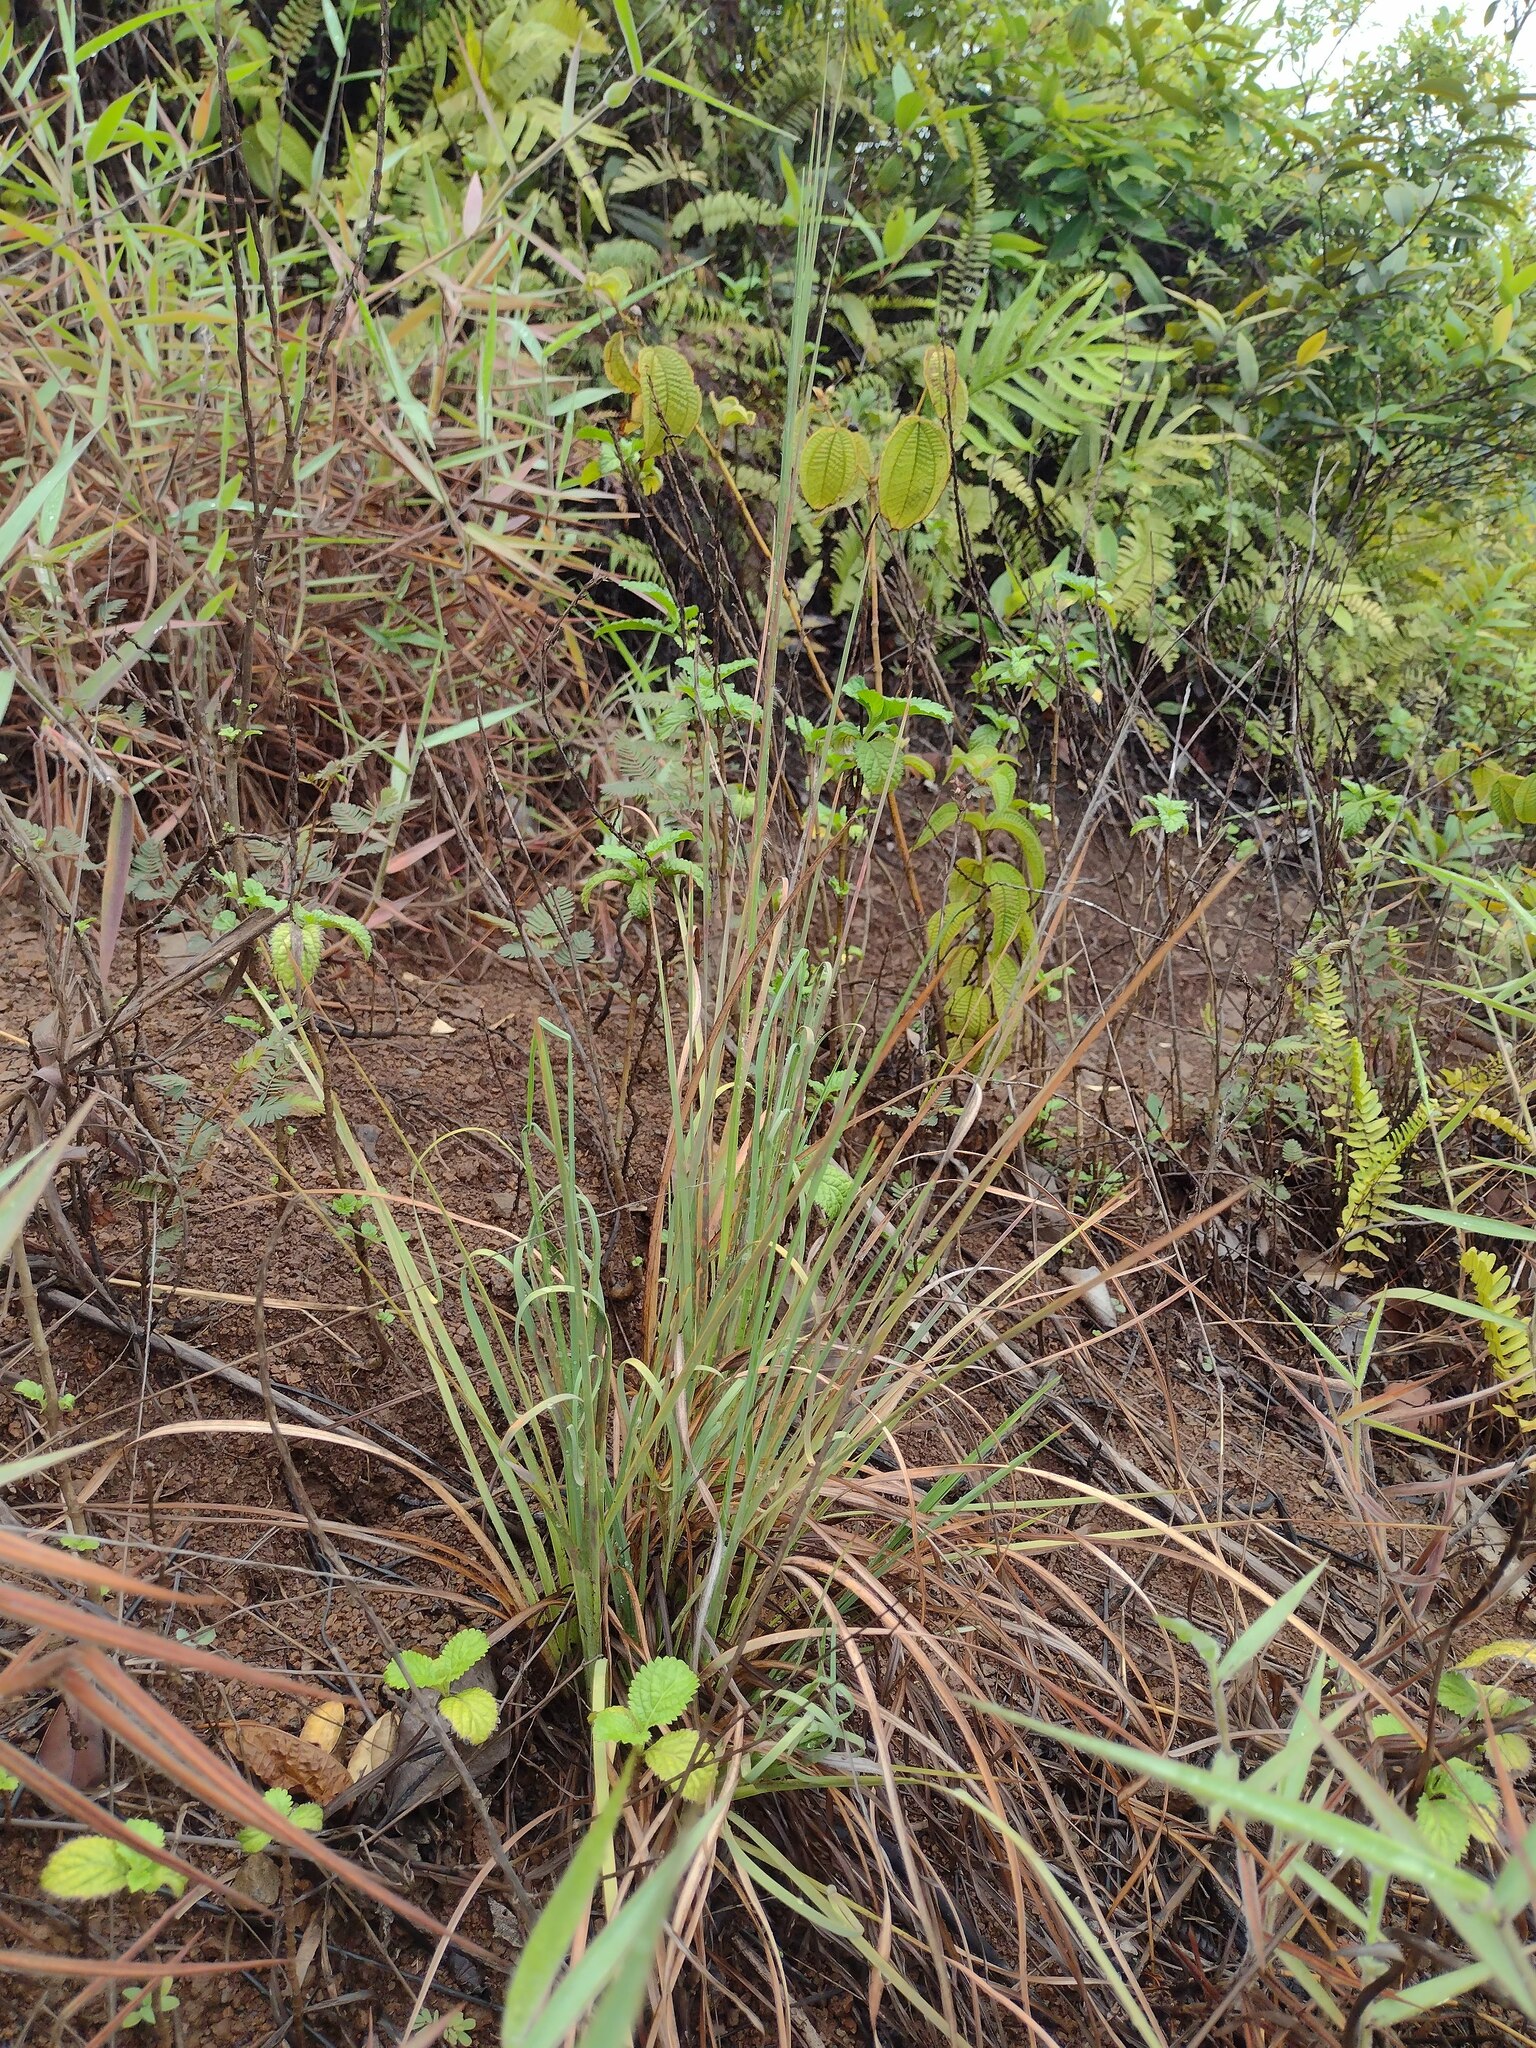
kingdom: Plantae
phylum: Tracheophyta
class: Liliopsida
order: Poales
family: Poaceae
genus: Andropogon
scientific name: Andropogon virginicus
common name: Broomsedge bluestem
